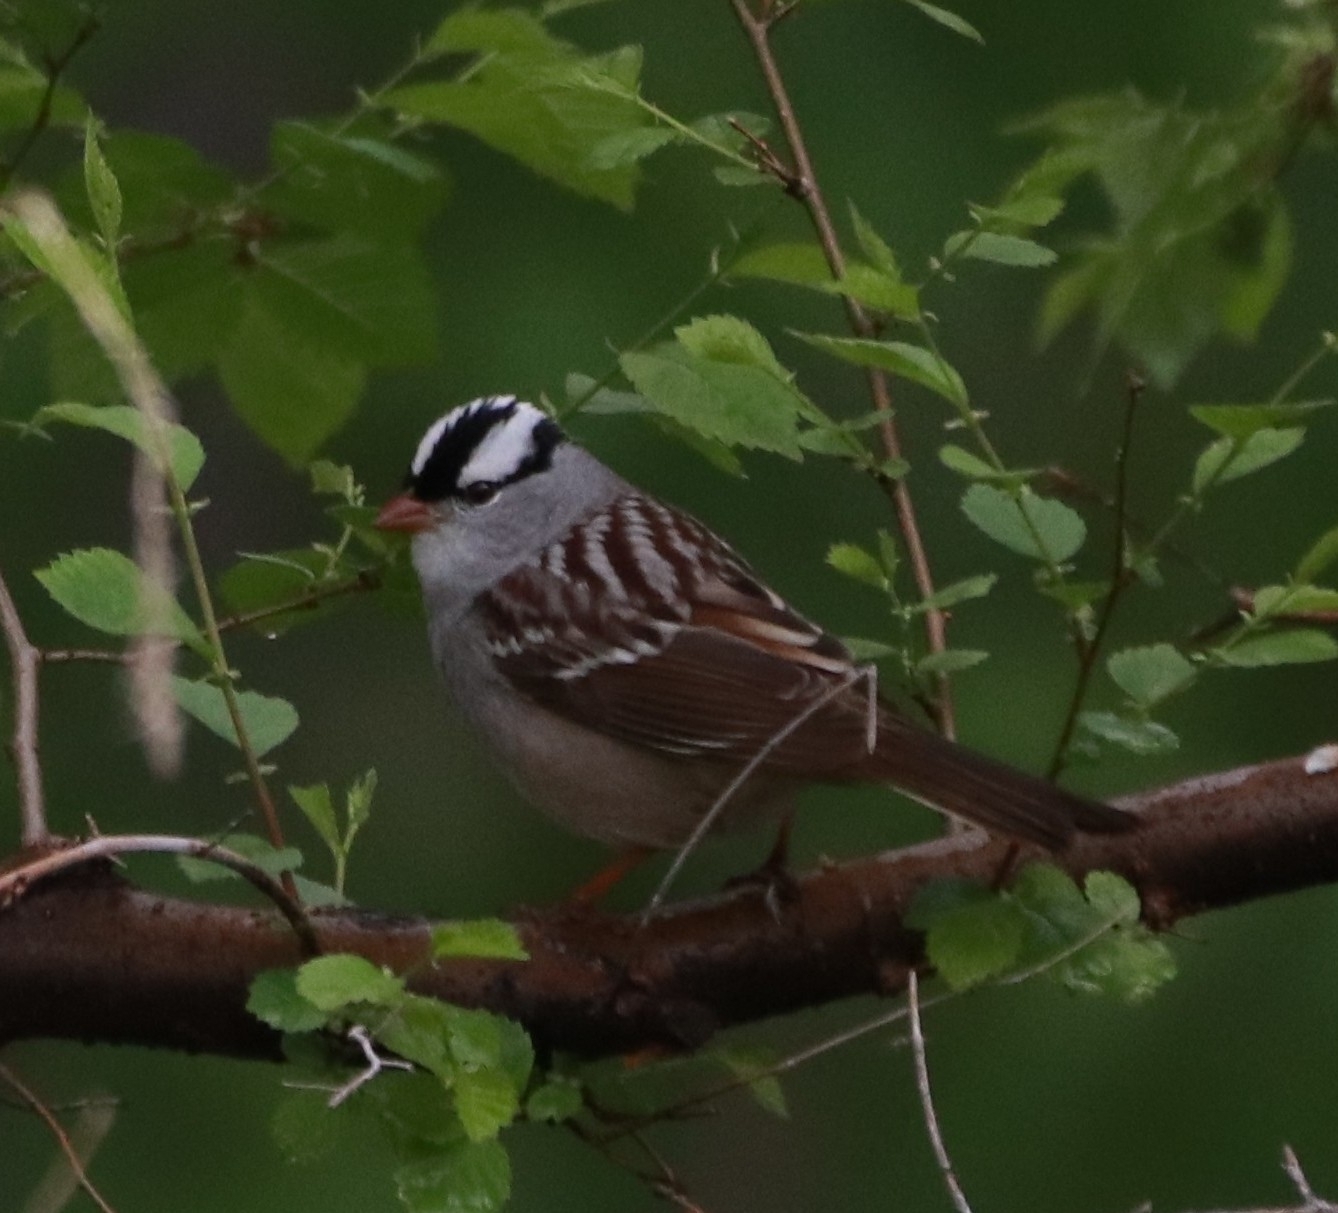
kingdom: Animalia
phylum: Chordata
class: Aves
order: Passeriformes
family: Passerellidae
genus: Zonotrichia
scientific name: Zonotrichia leucophrys
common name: White-crowned sparrow
